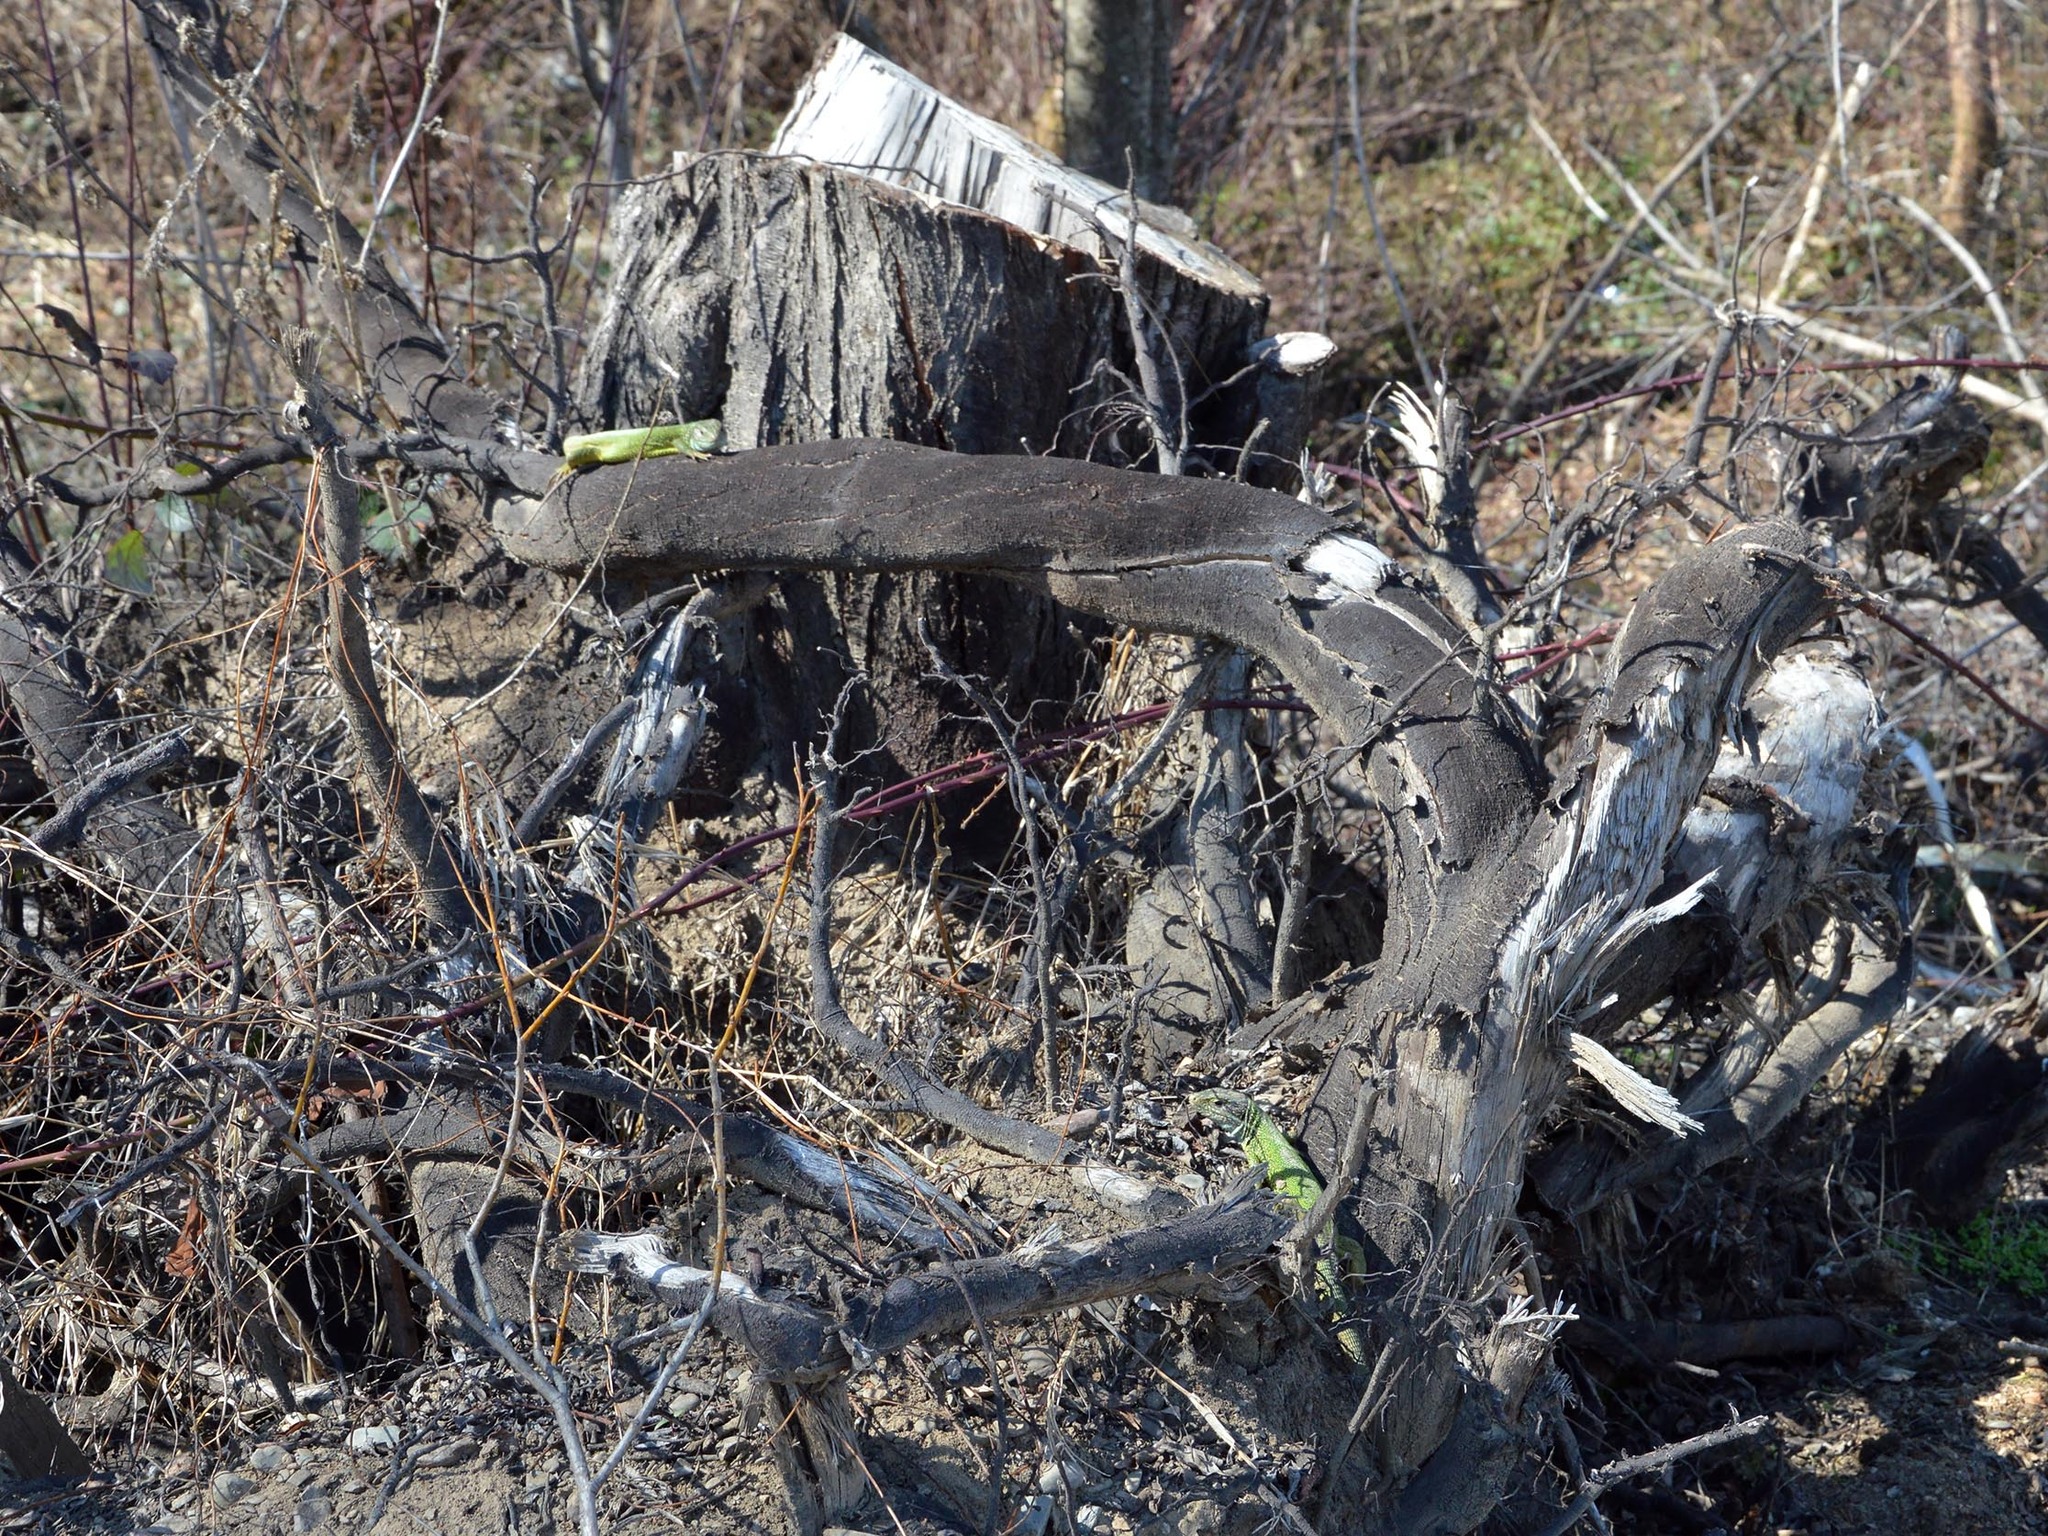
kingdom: Animalia
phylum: Chordata
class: Squamata
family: Lacertidae
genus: Lacerta
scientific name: Lacerta viridis
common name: European green lizard
